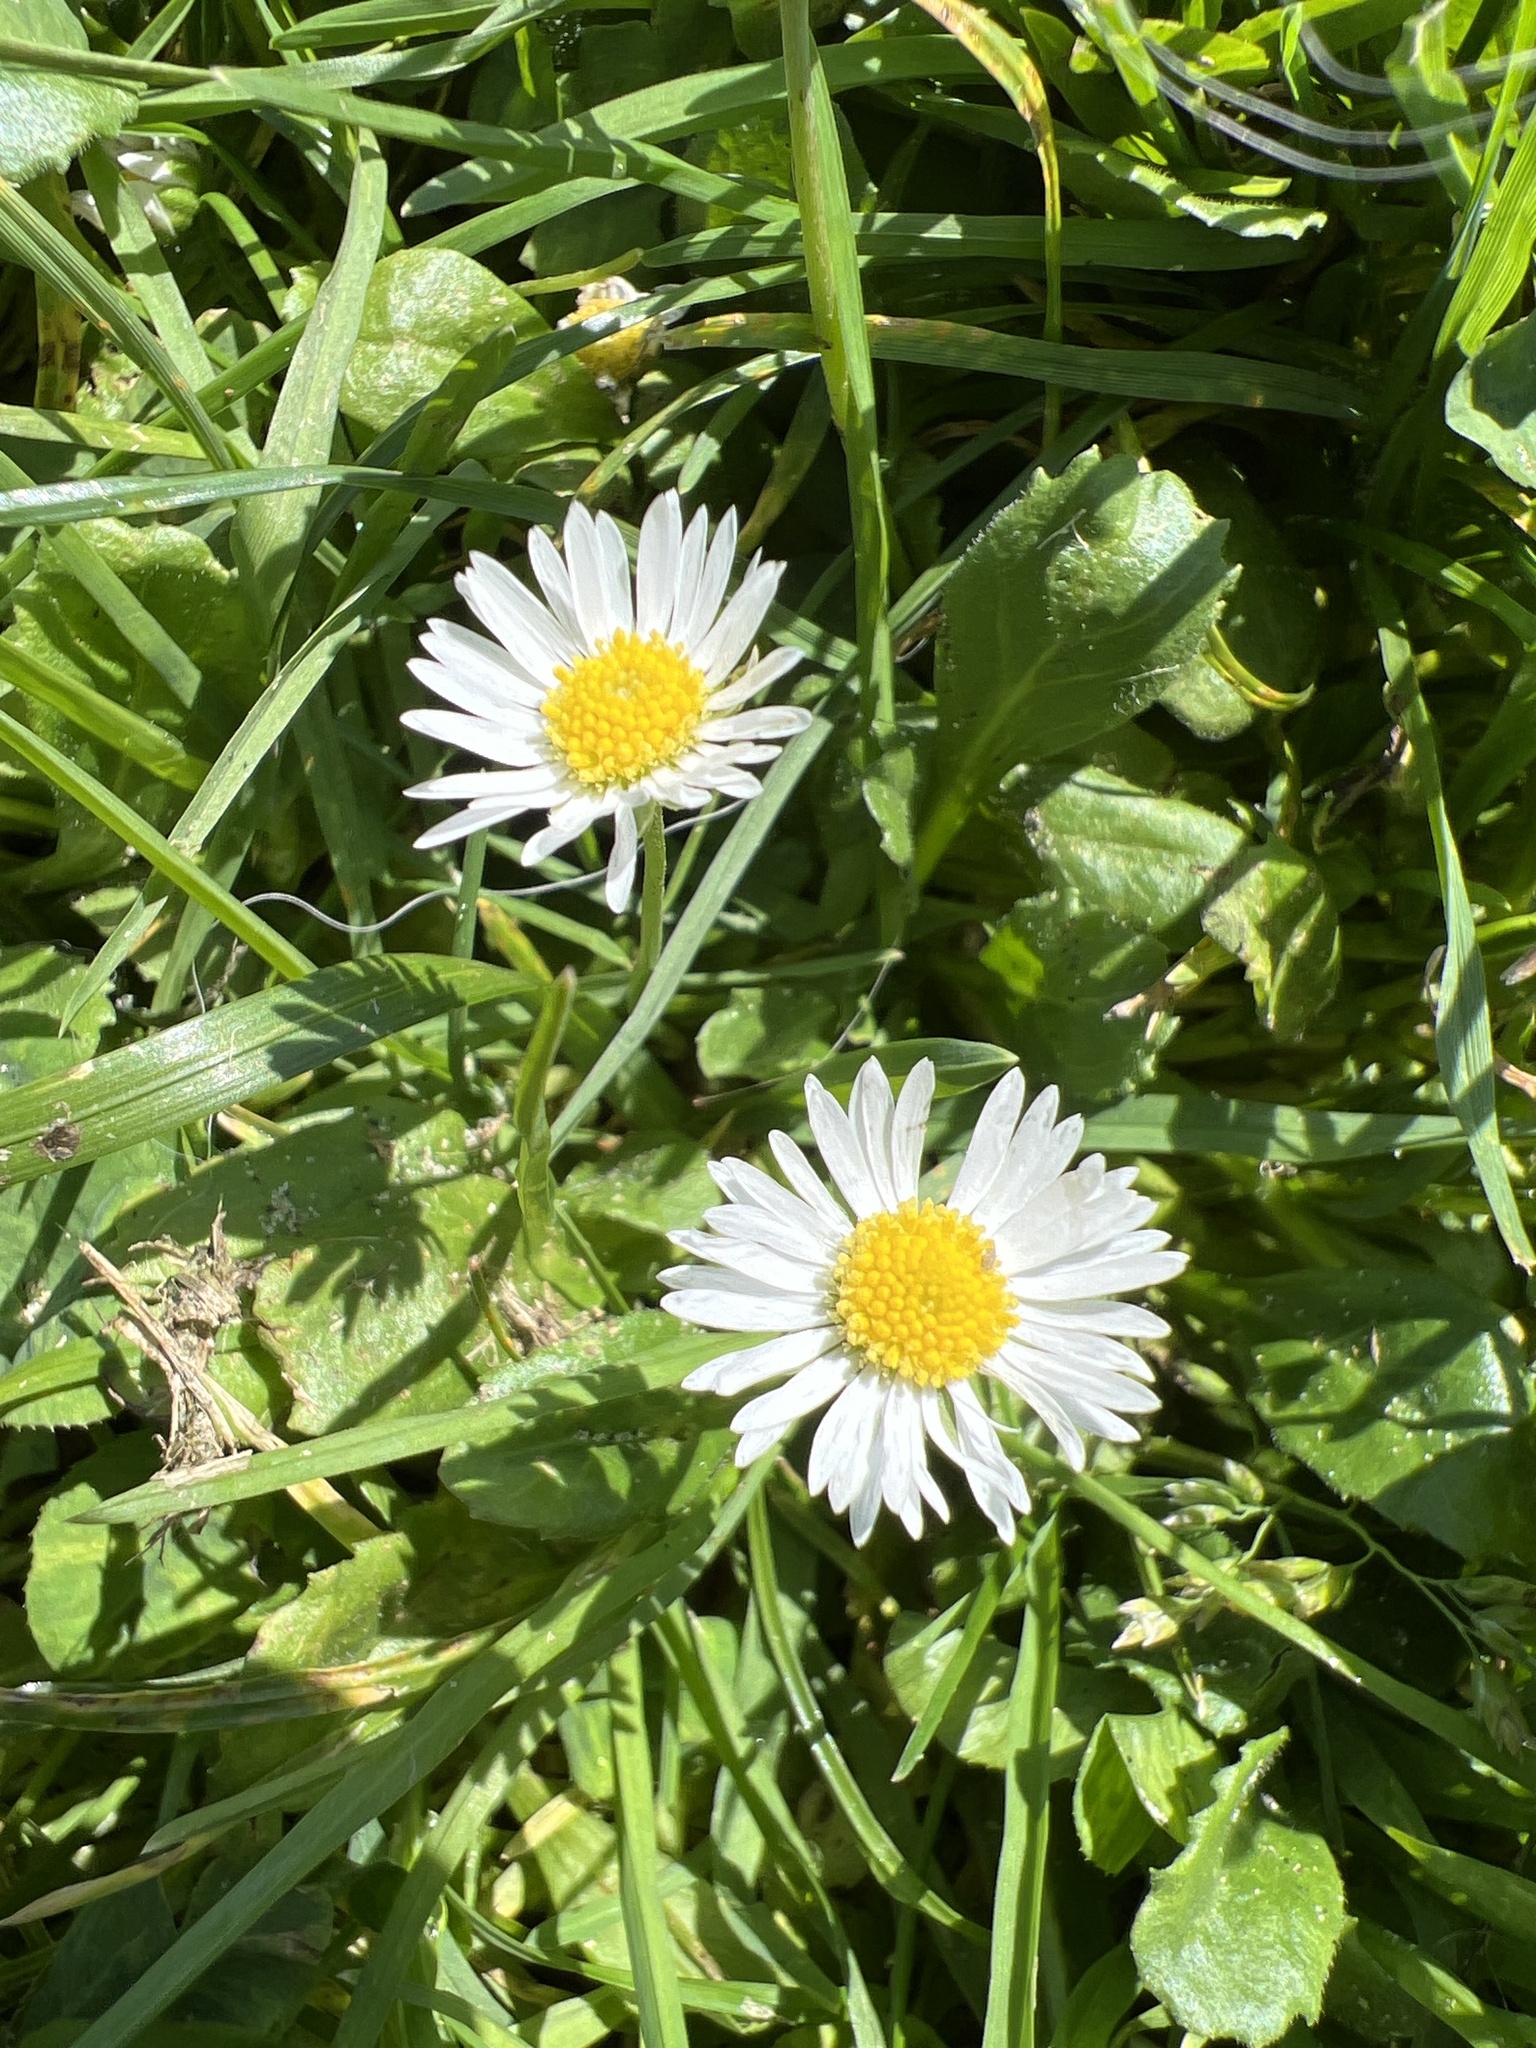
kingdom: Plantae
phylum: Tracheophyta
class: Magnoliopsida
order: Asterales
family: Asteraceae
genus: Bellis
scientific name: Bellis perennis
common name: Lawndaisy
